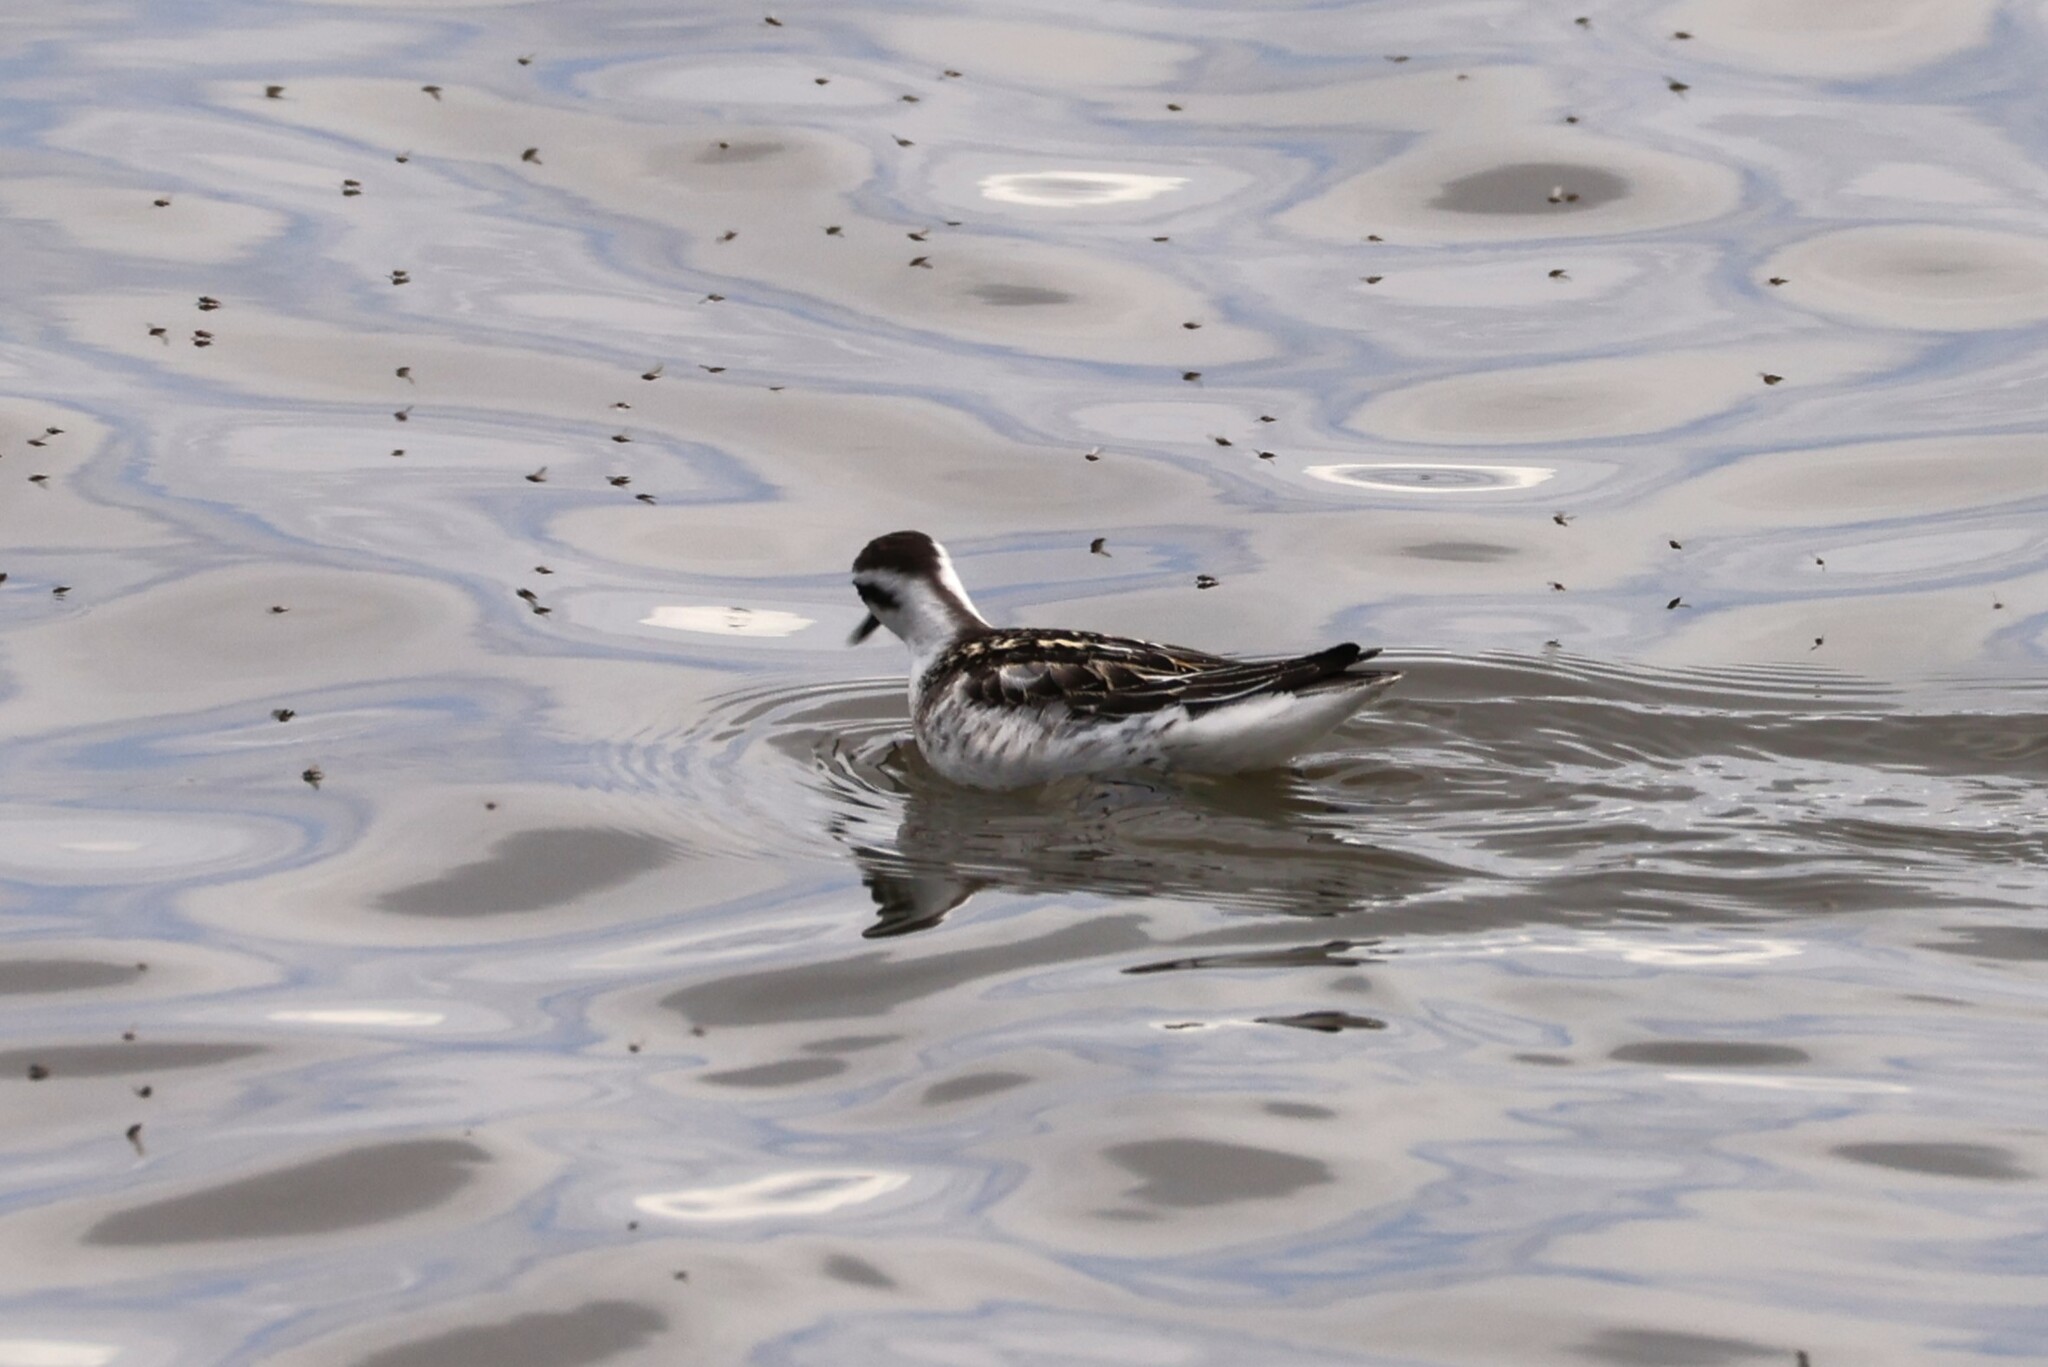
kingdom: Animalia
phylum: Chordata
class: Aves
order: Charadriiformes
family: Scolopacidae
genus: Phalaropus
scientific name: Phalaropus lobatus
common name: Red-necked phalarope
